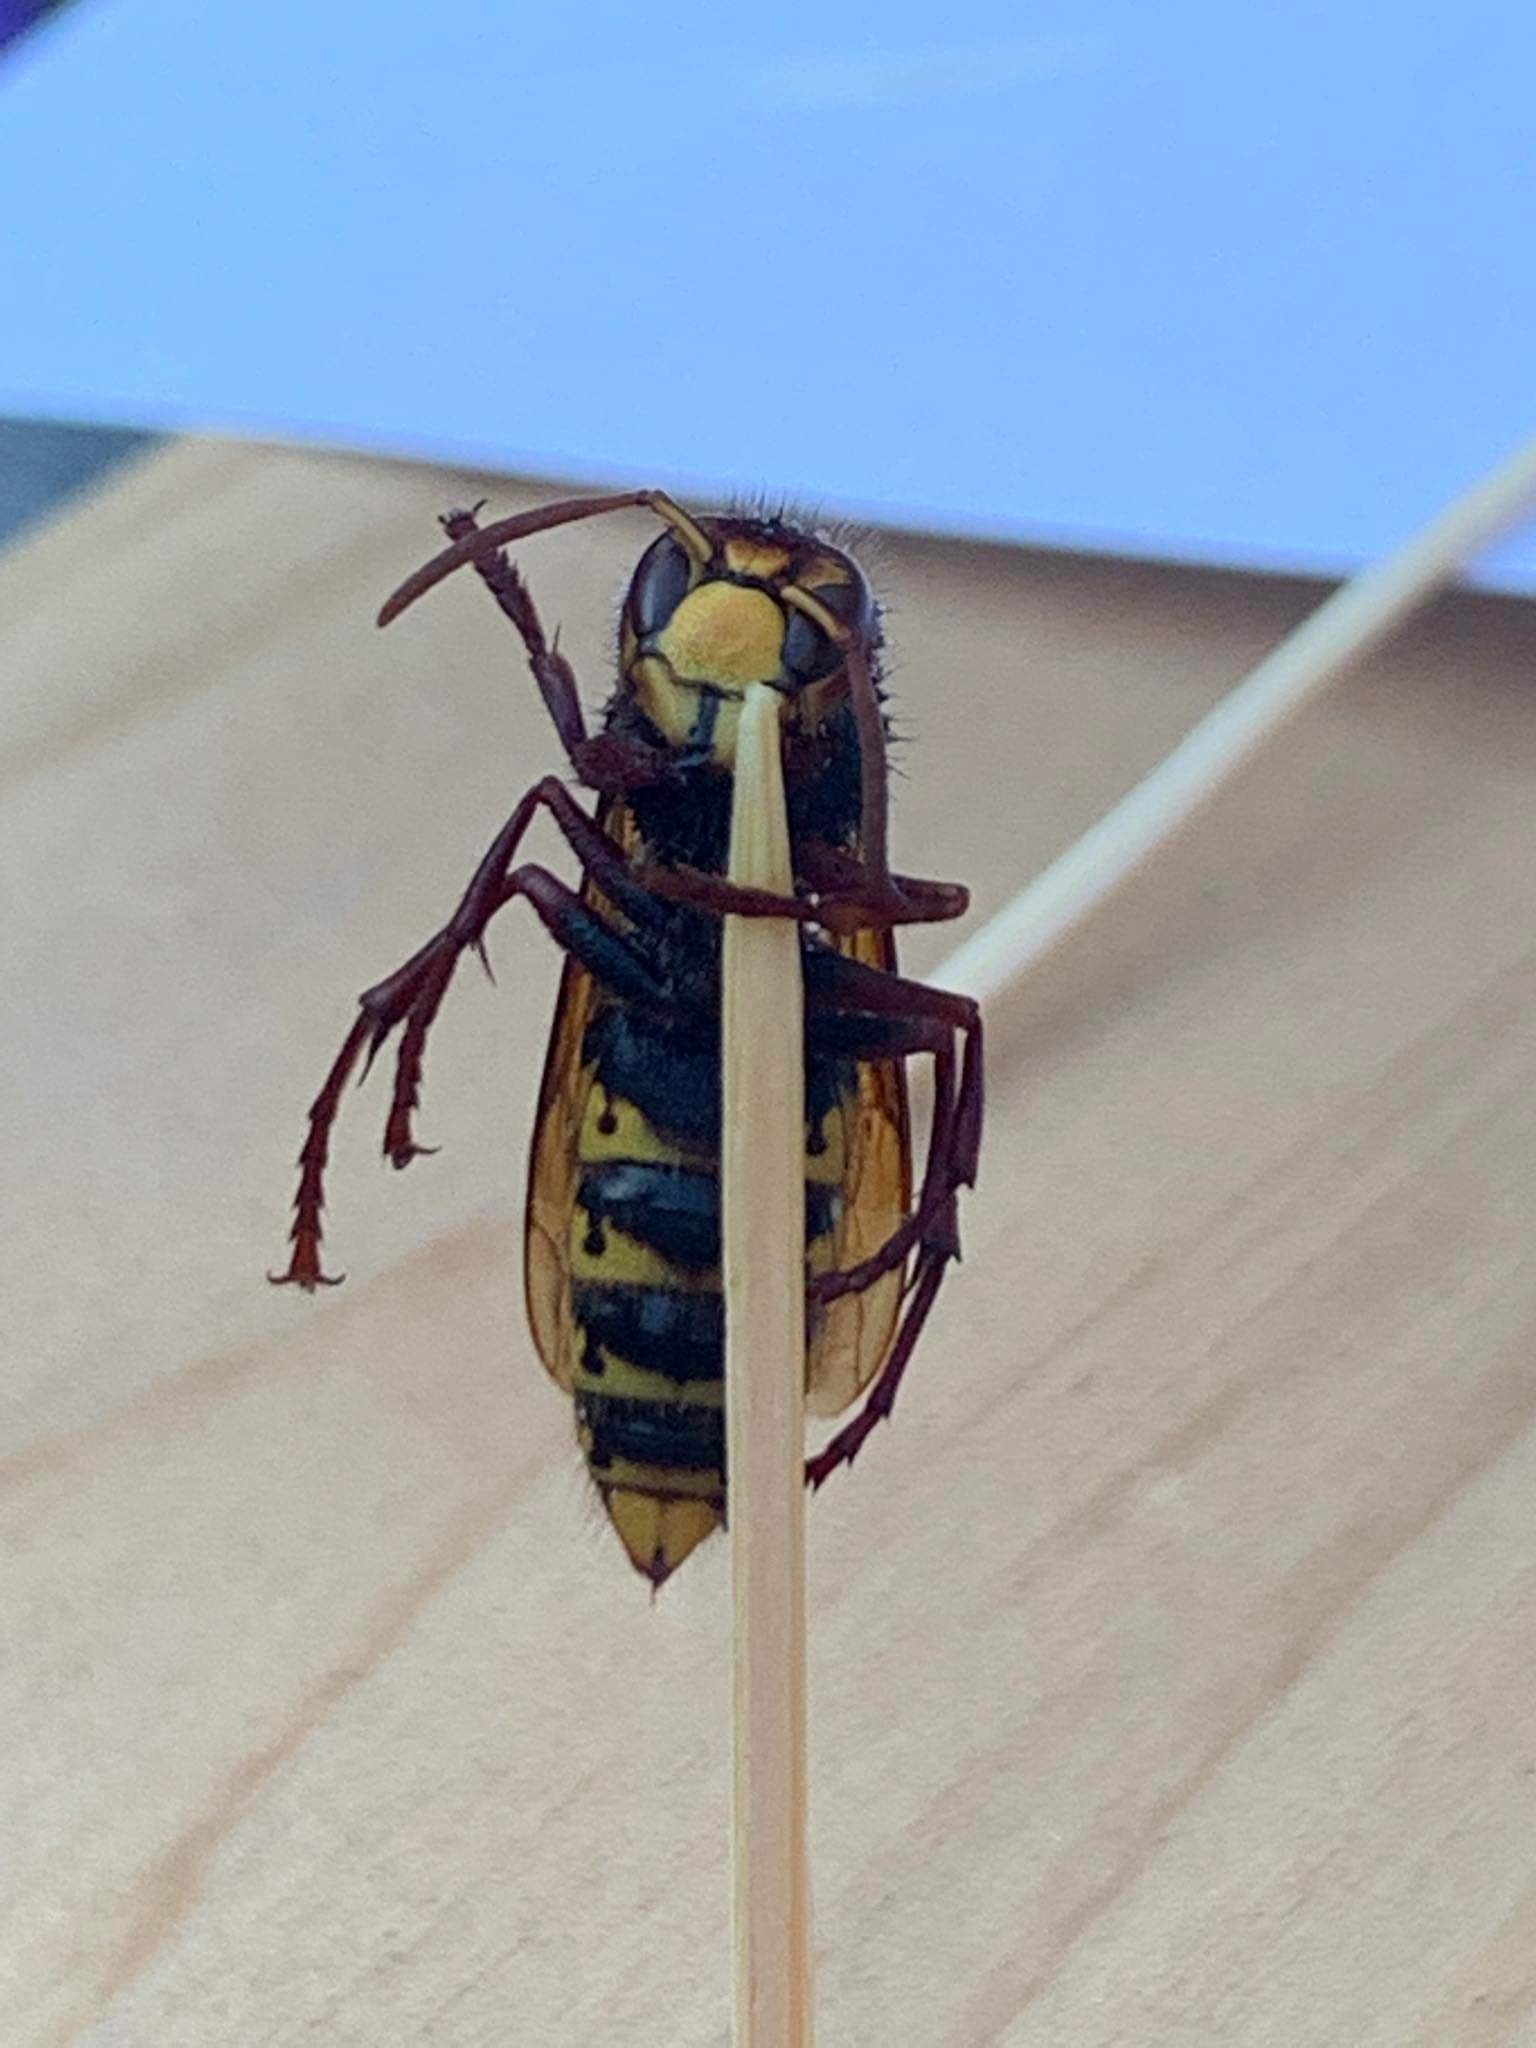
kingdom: Animalia
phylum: Arthropoda
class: Insecta
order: Hymenoptera
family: Vespidae
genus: Vespa
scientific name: Vespa crabro
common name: Hornet
